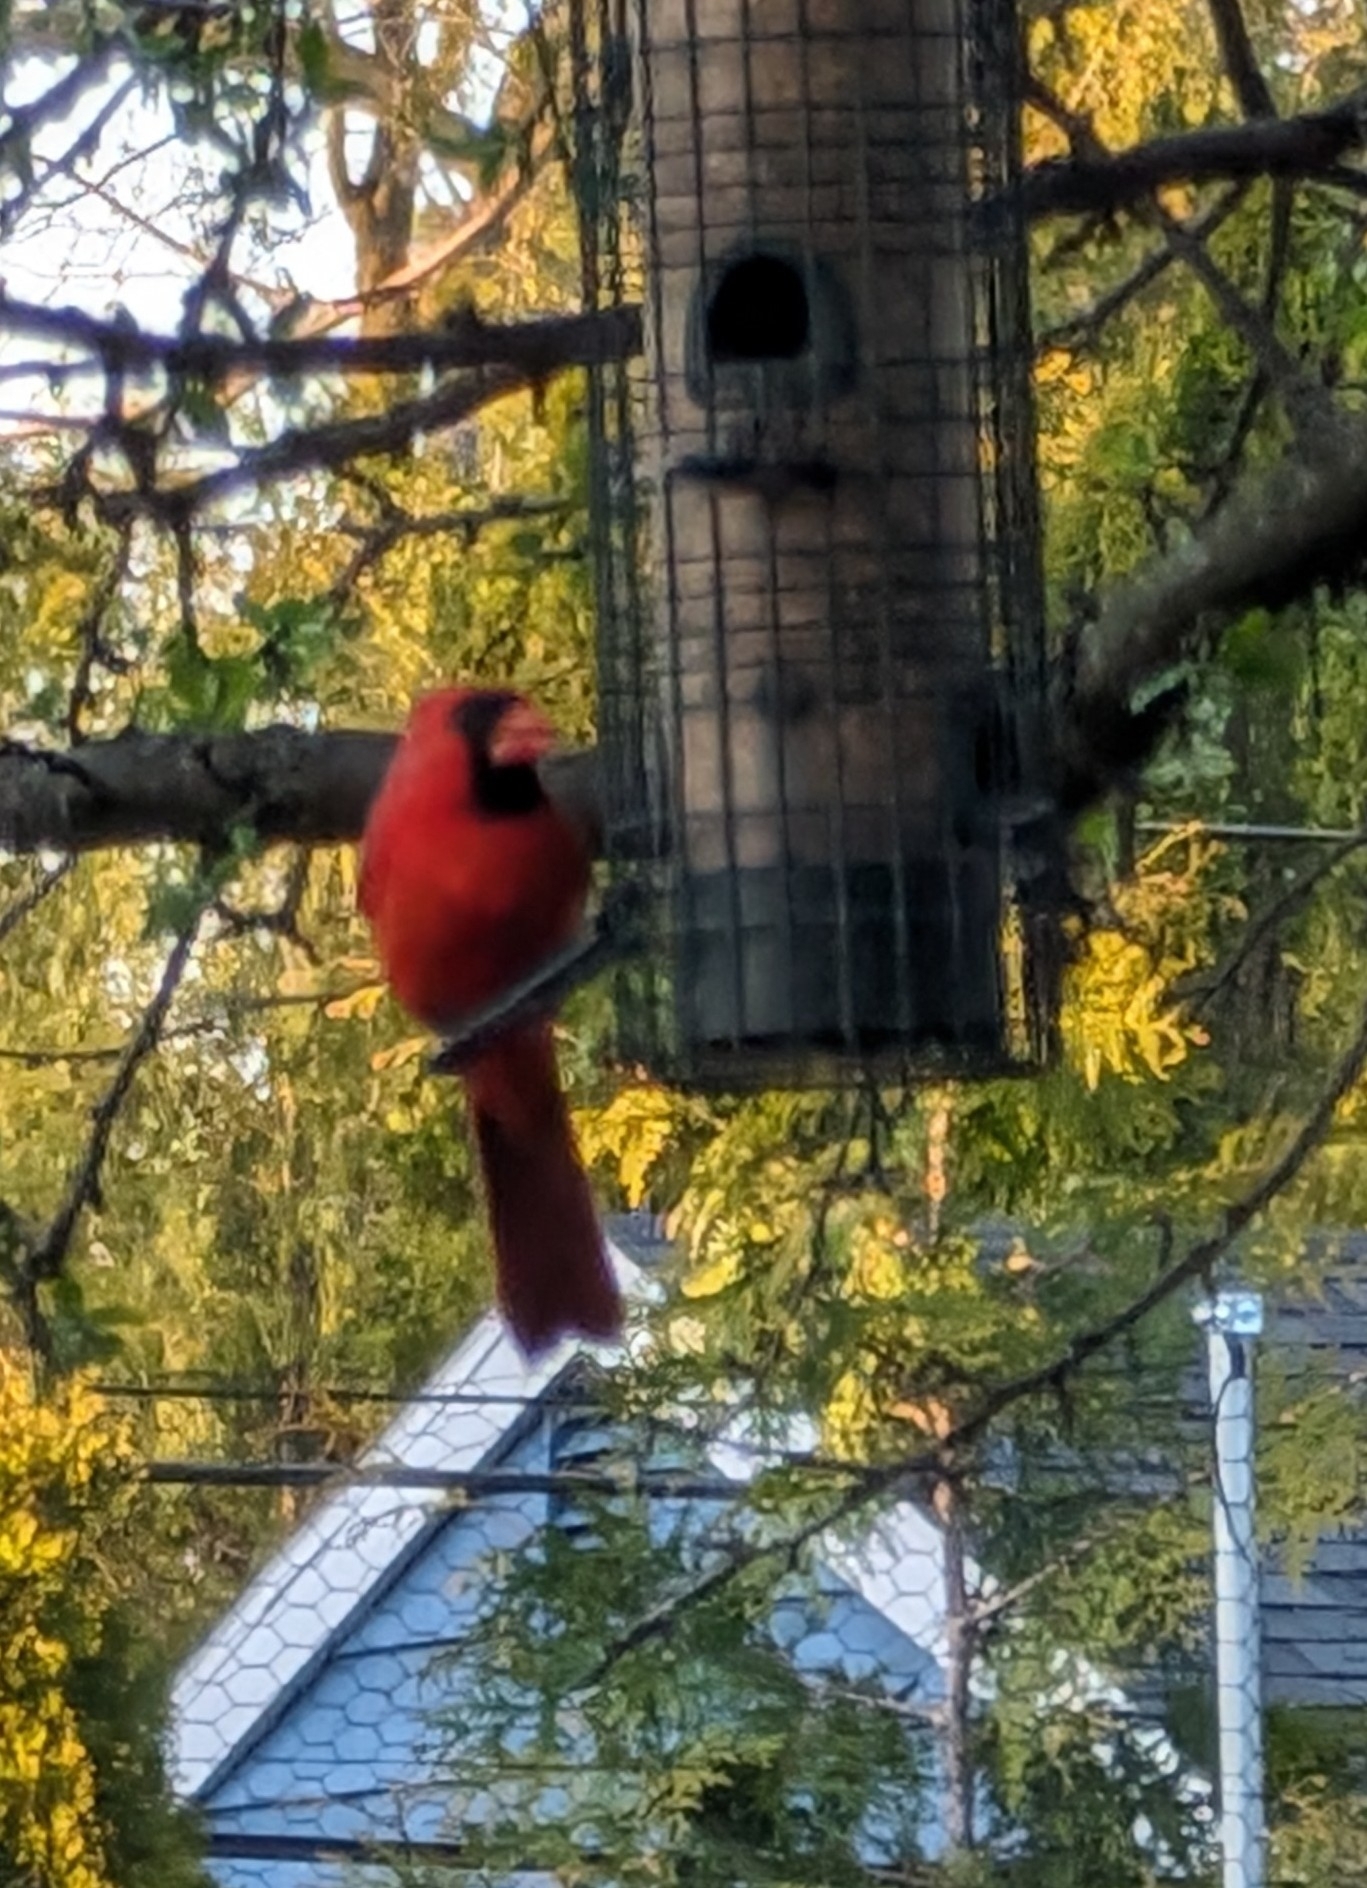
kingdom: Animalia
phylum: Chordata
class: Aves
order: Passeriformes
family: Cardinalidae
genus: Cardinalis
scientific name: Cardinalis cardinalis
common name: Northern cardinal
